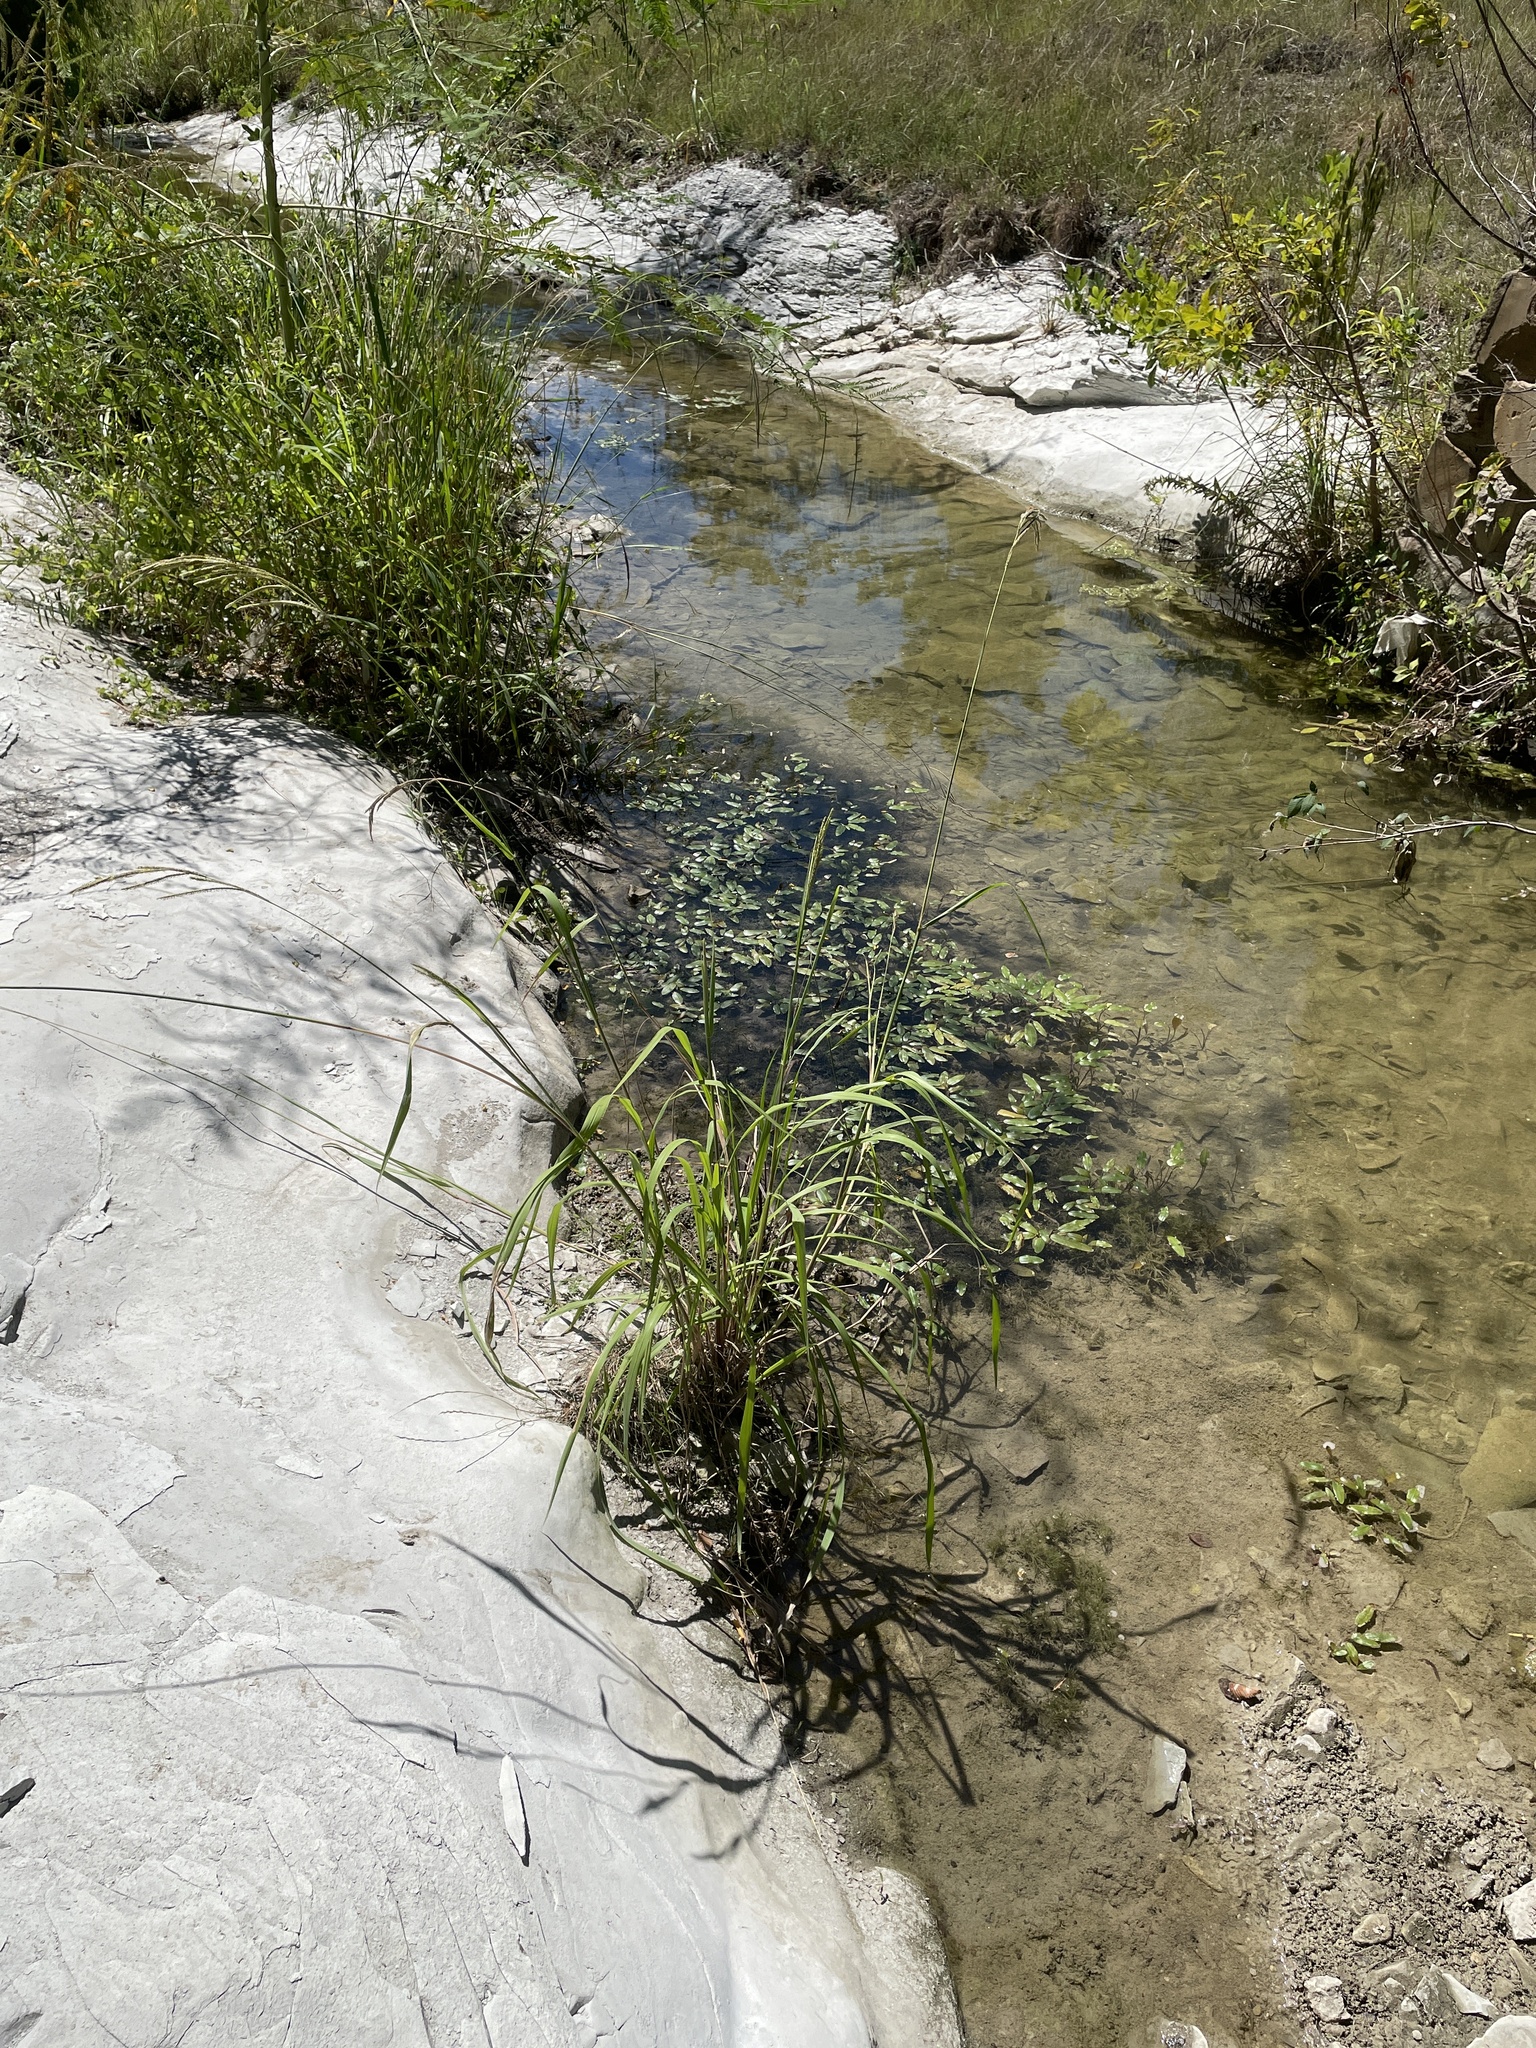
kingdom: Plantae
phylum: Tracheophyta
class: Liliopsida
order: Poales
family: Poaceae
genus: Paspalum
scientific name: Paspalum urvillei
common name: Vasey's grass
